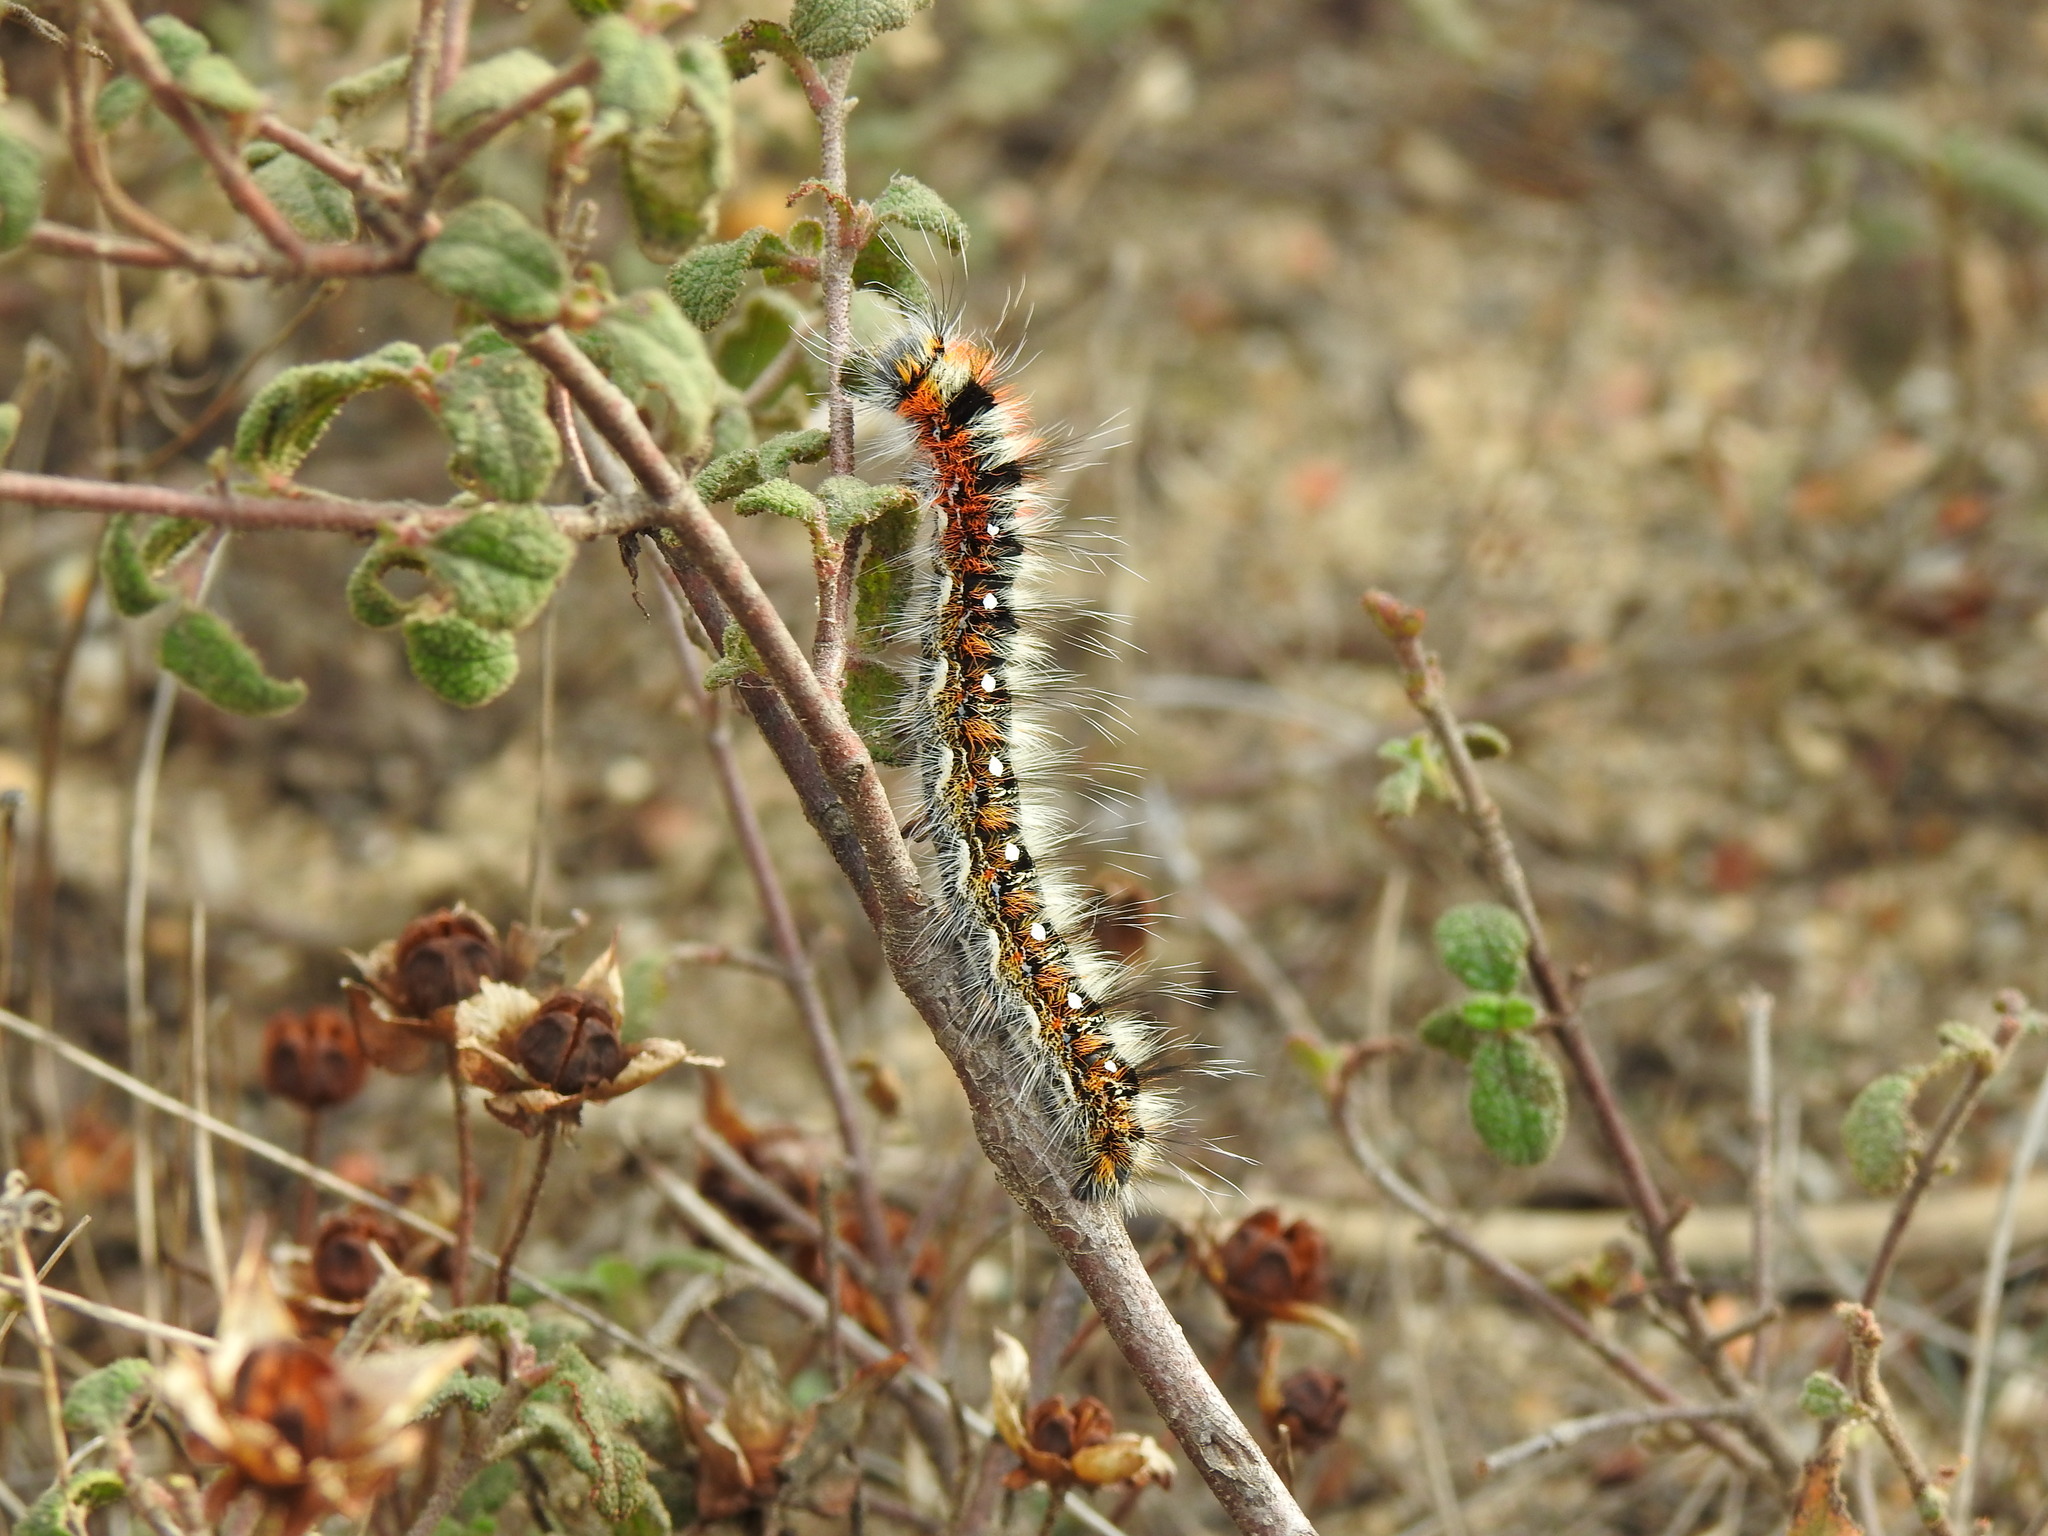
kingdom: Animalia
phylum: Arthropoda
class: Insecta
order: Lepidoptera
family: Lasiocampidae
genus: Psilogaster
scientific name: Psilogaster loti
